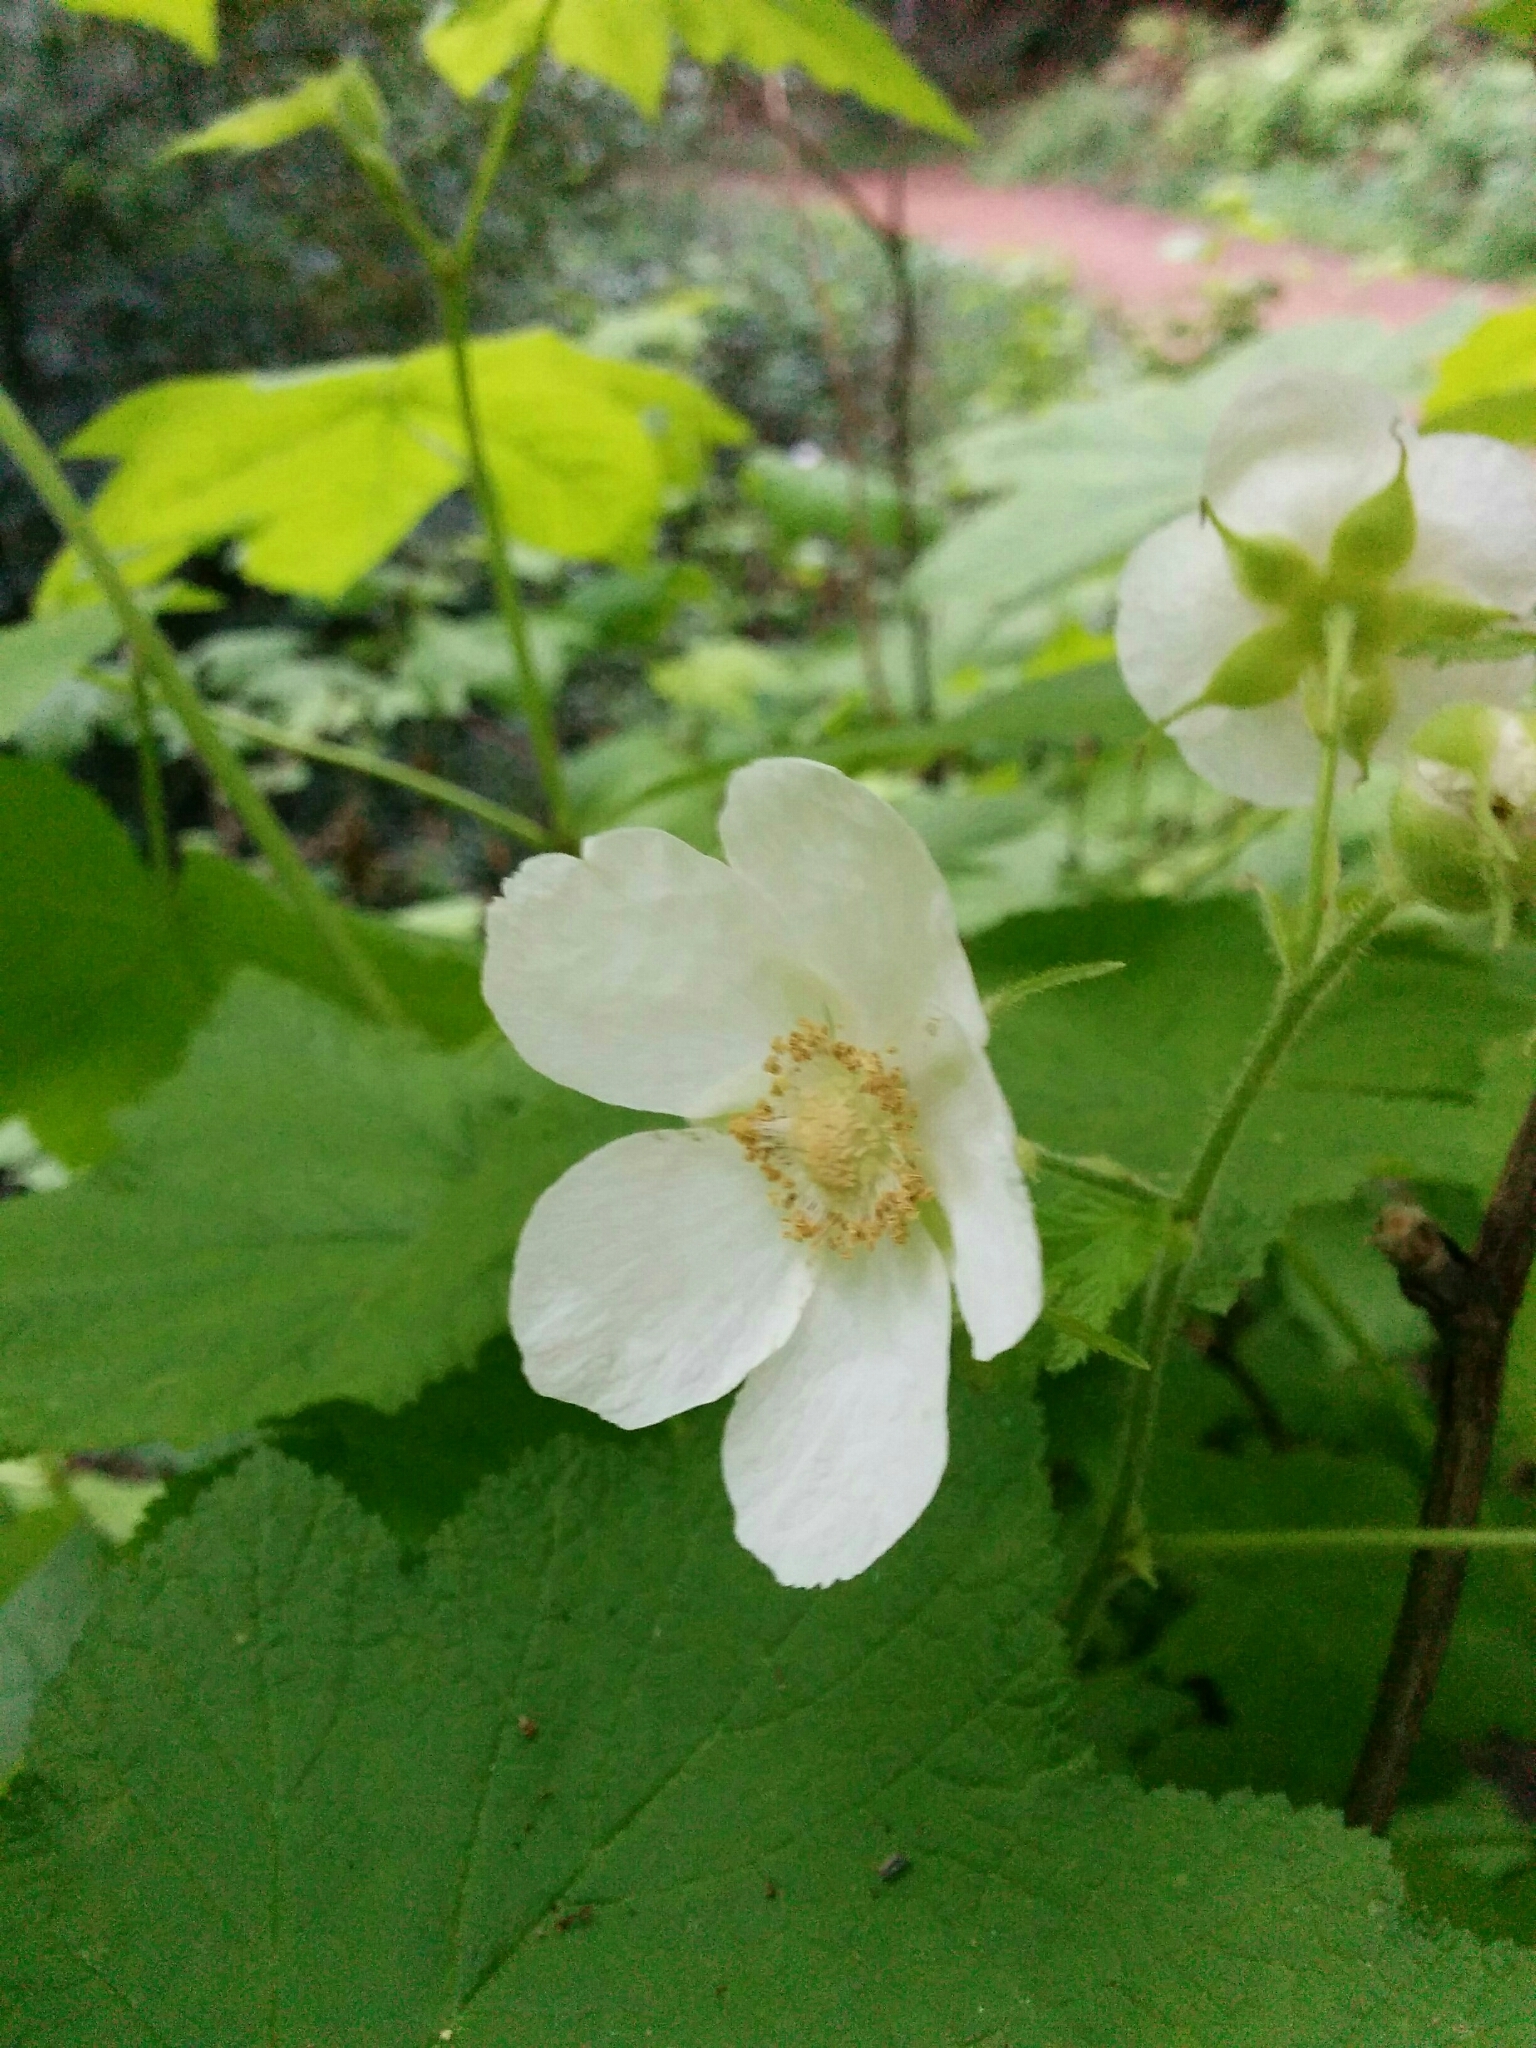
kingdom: Plantae
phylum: Tracheophyta
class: Magnoliopsida
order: Rosales
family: Rosaceae
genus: Rubus
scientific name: Rubus parviflorus
